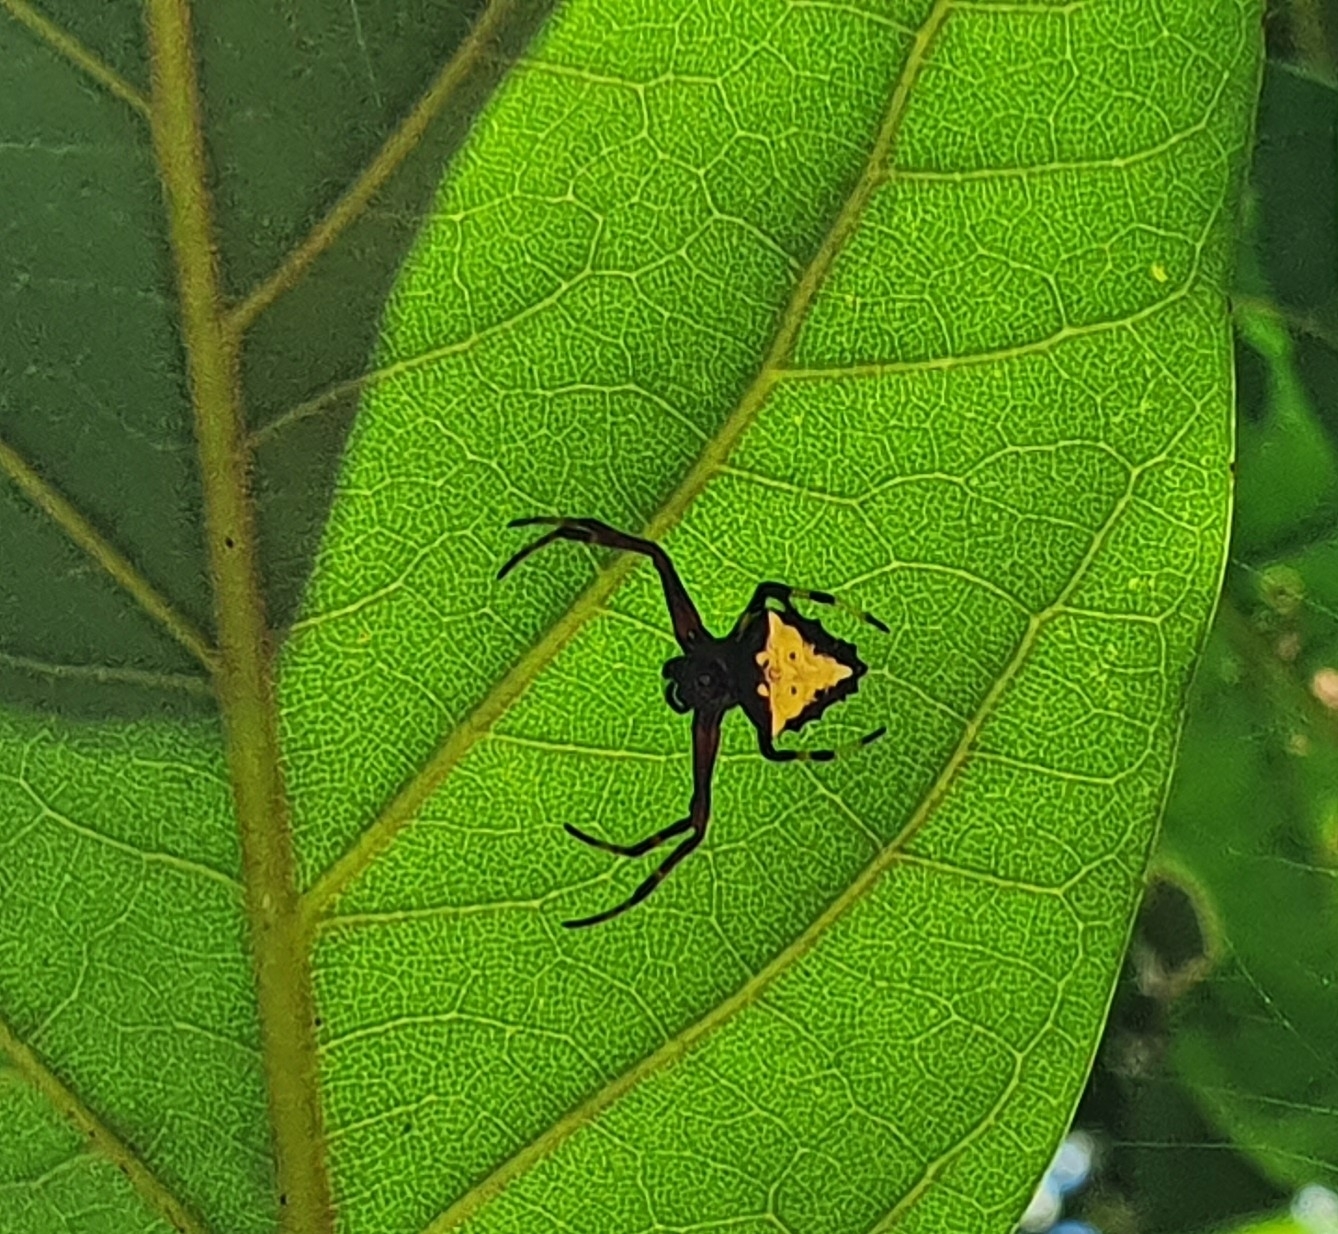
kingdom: Animalia
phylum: Arthropoda
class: Arachnida
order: Araneae
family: Araneidae
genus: Verrucosa
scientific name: Verrucosa arenata
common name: Orb weavers
